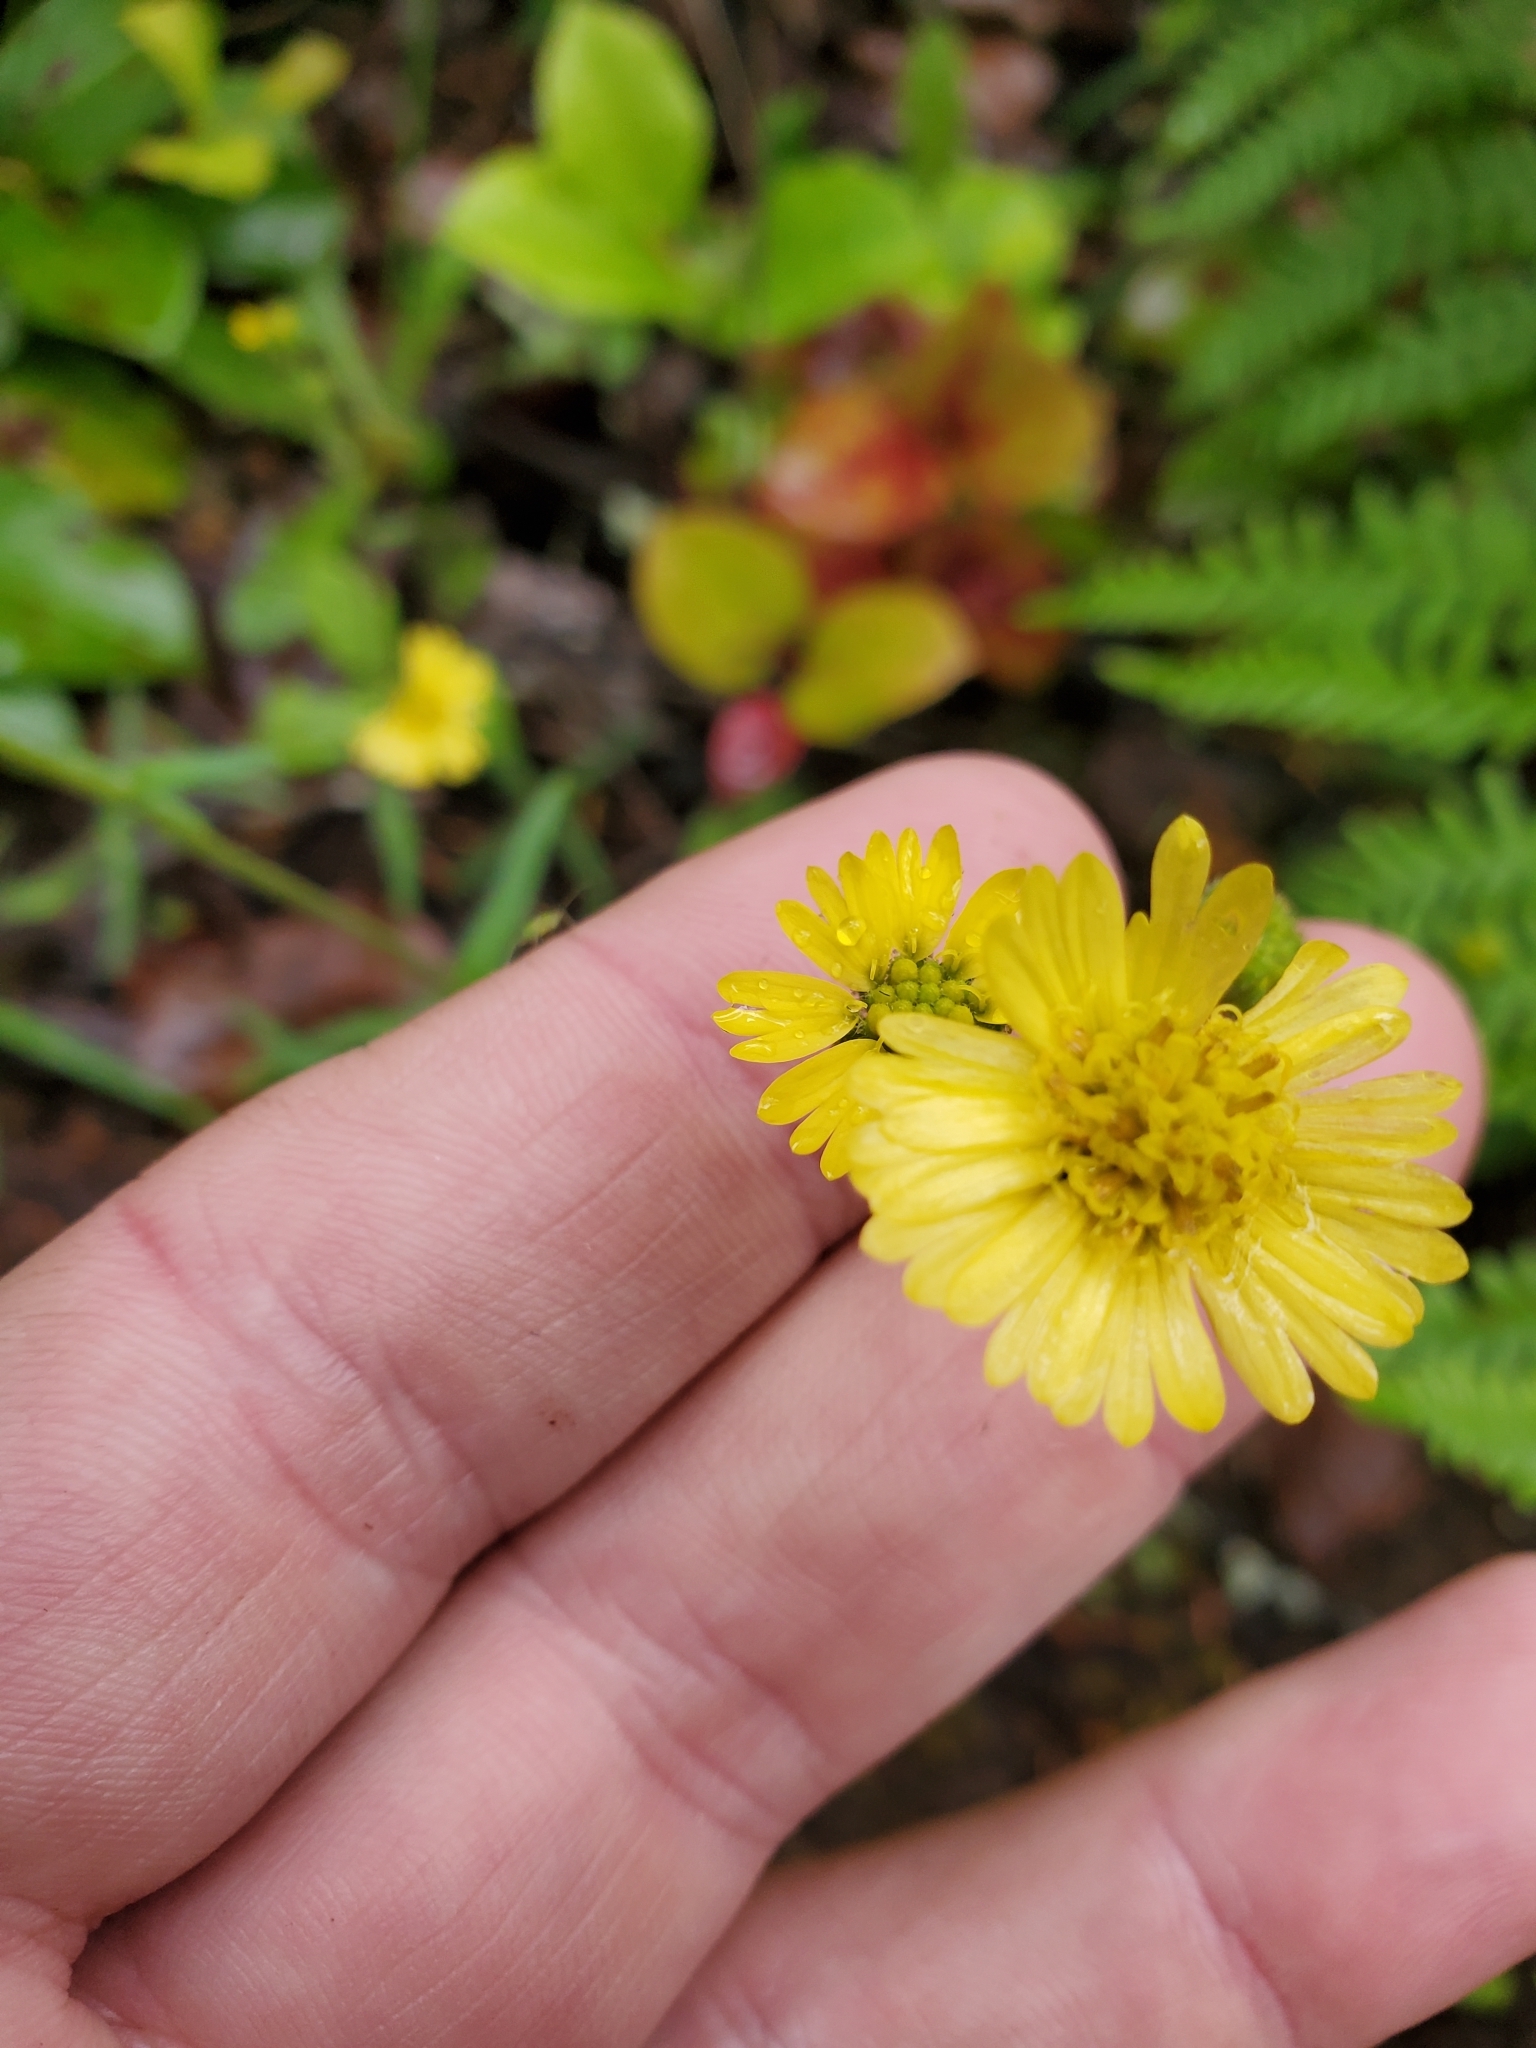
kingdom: Plantae
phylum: Tracheophyta
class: Magnoliopsida
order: Asterales
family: Asteraceae
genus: Anisocarpus
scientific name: Anisocarpus madioides
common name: Woodland madia
